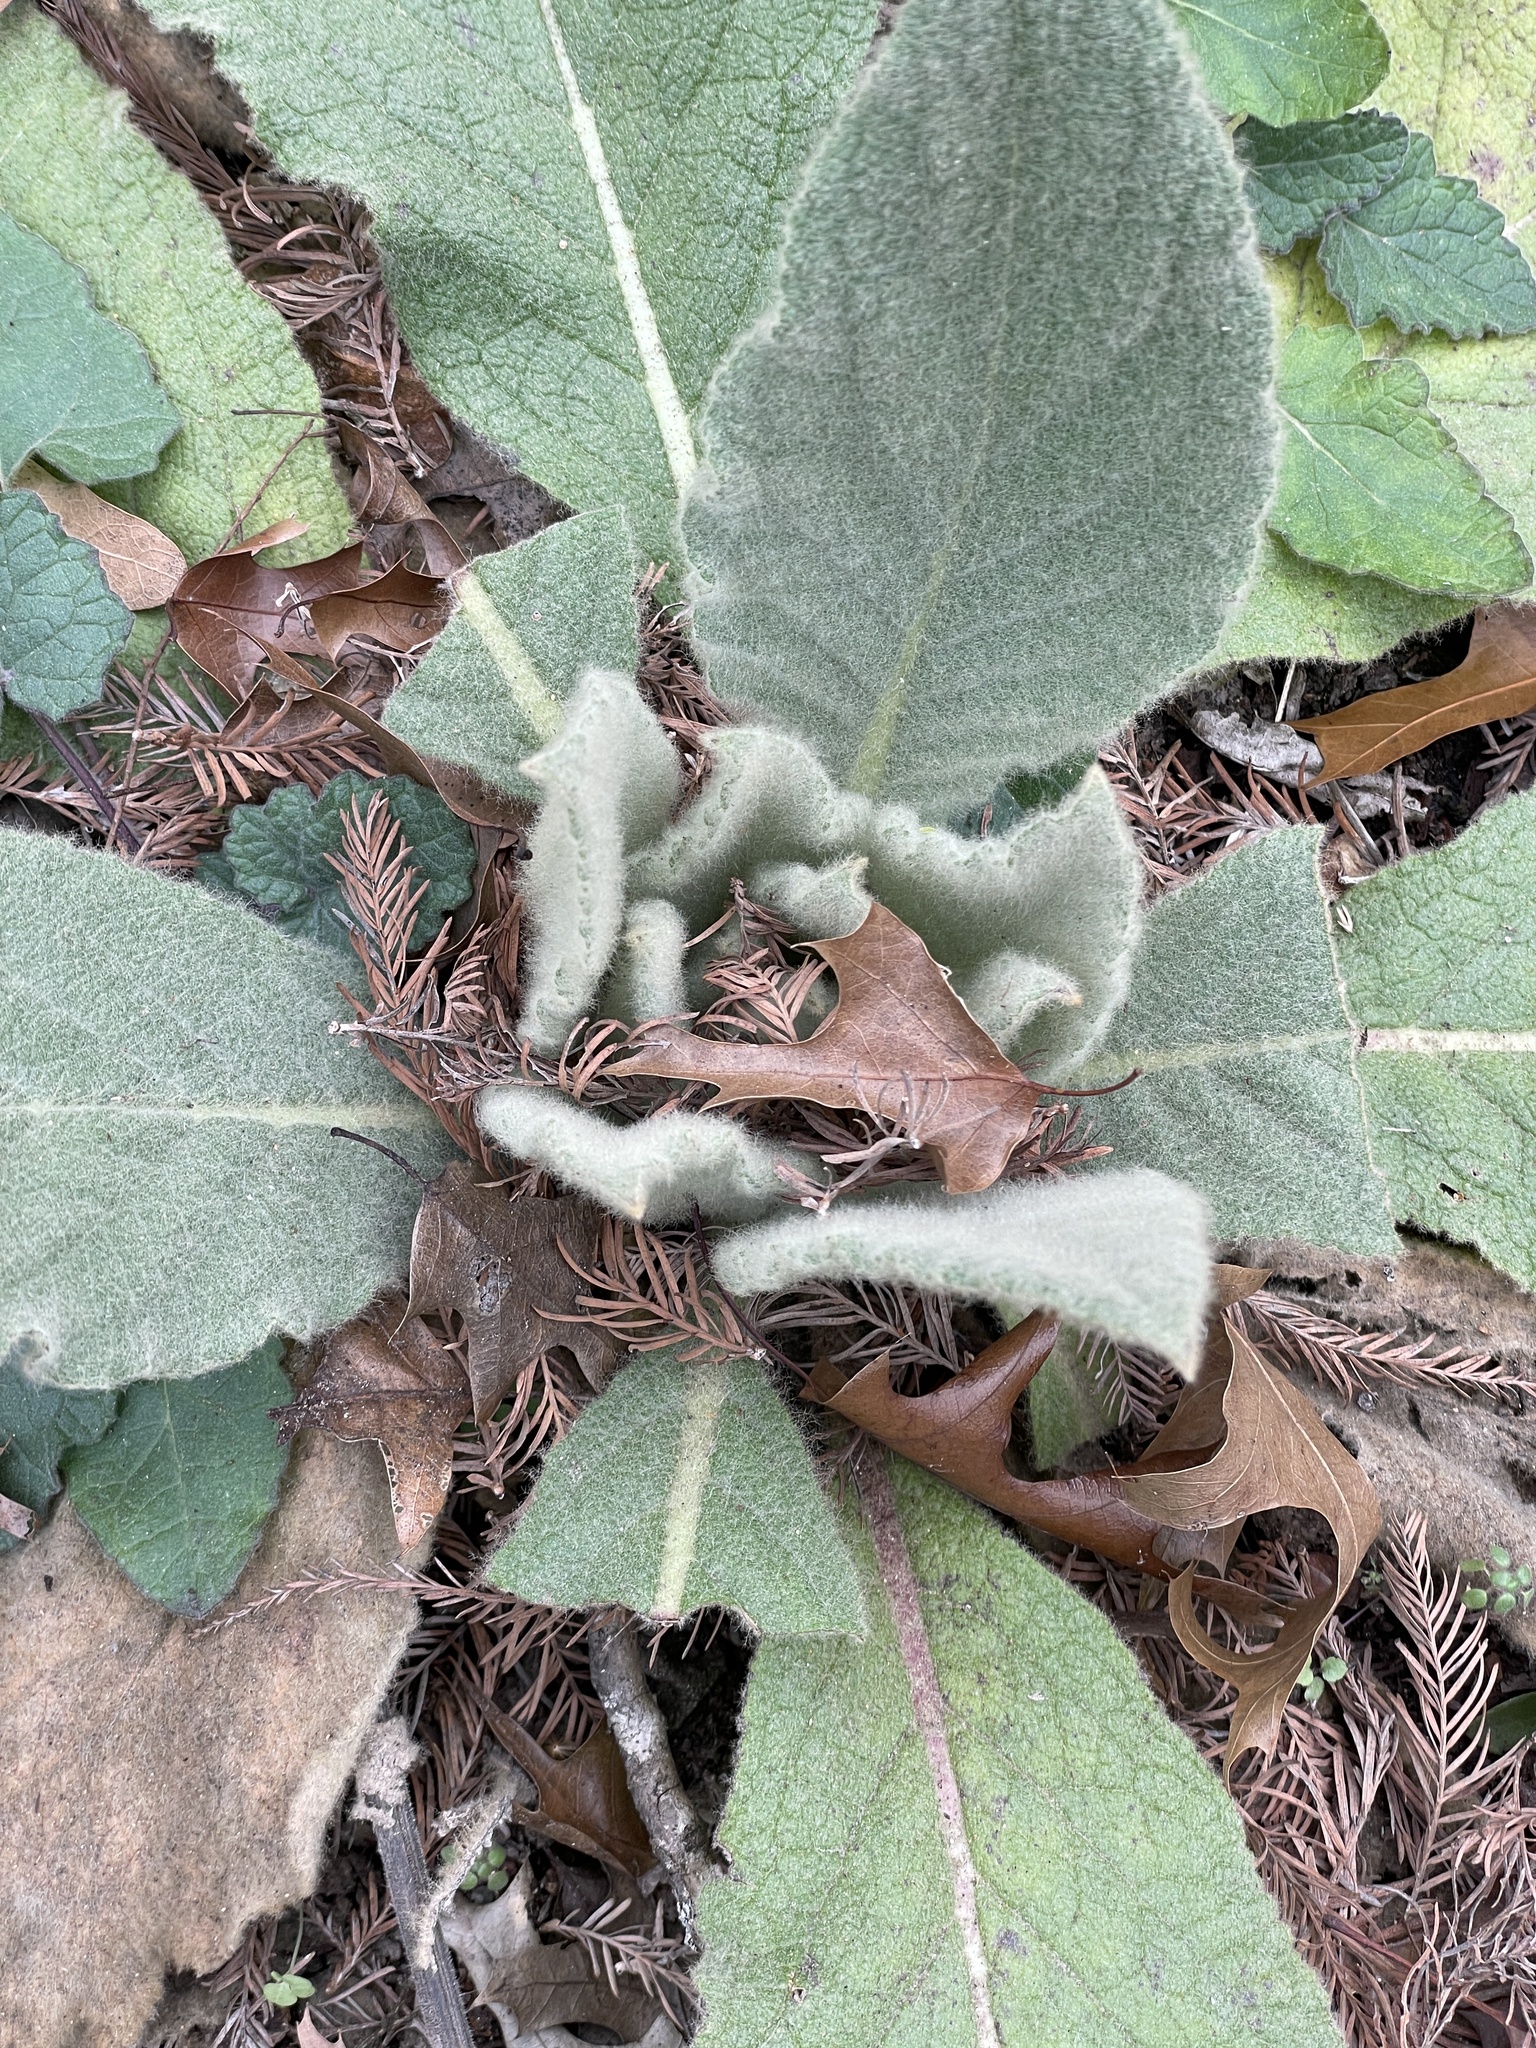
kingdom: Plantae
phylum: Tracheophyta
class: Magnoliopsida
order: Lamiales
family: Scrophulariaceae
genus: Verbascum
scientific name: Verbascum thapsus
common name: Common mullein
